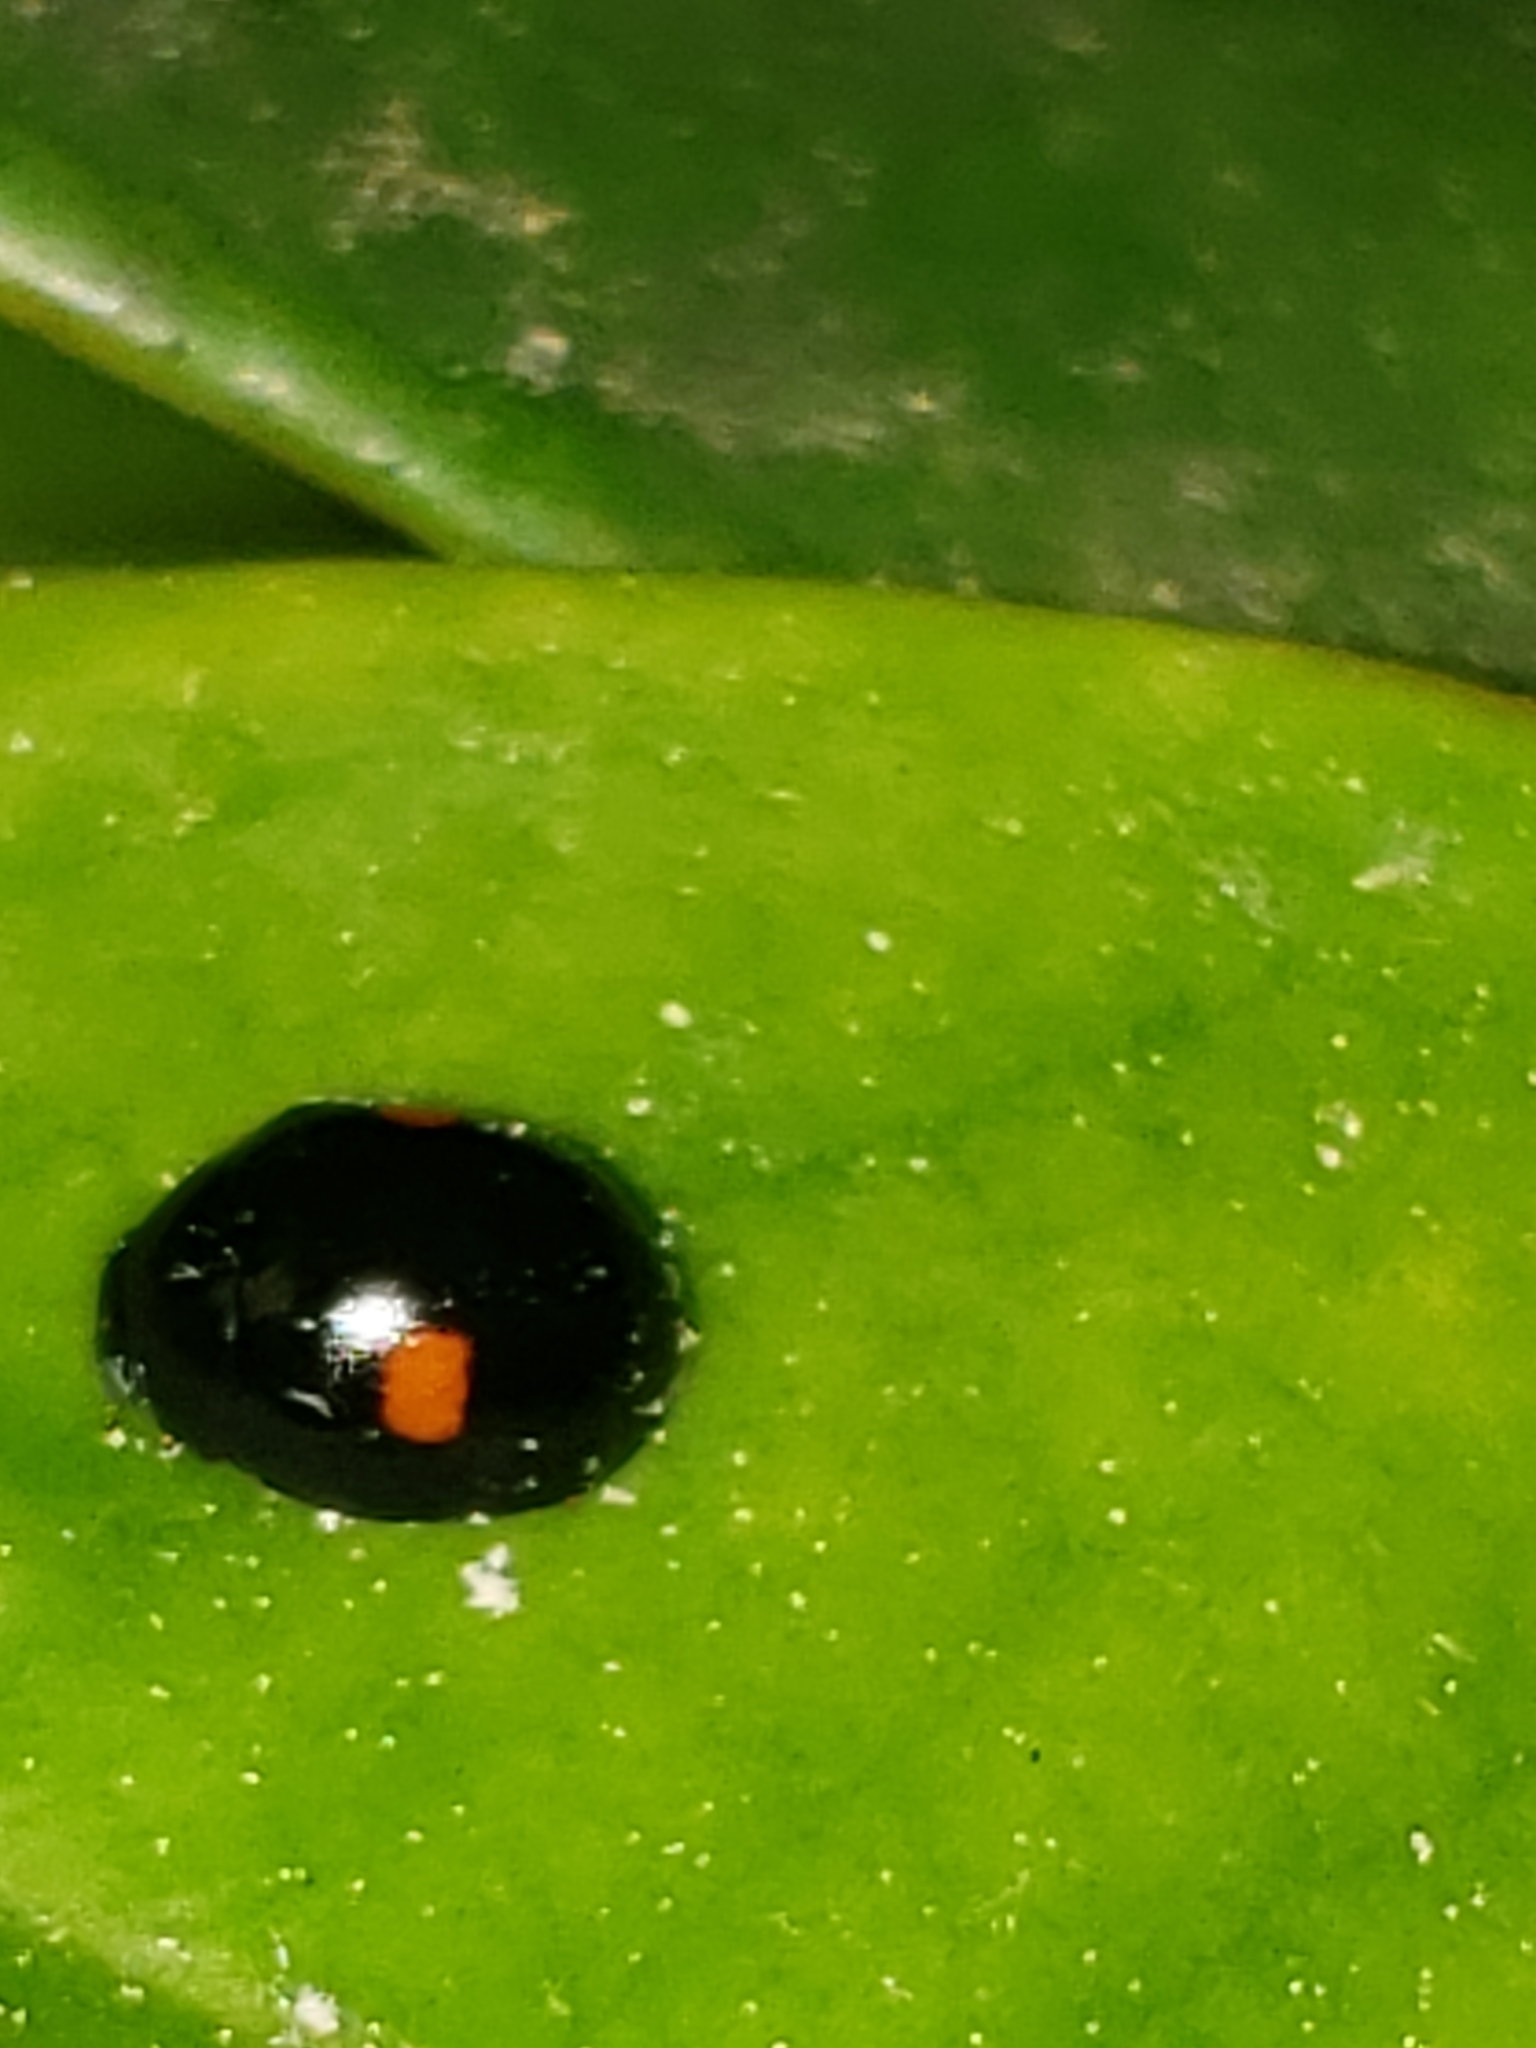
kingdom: Animalia
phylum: Arthropoda
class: Insecta
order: Coleoptera
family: Coccinellidae
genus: Hyperaspis
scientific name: Hyperaspis
